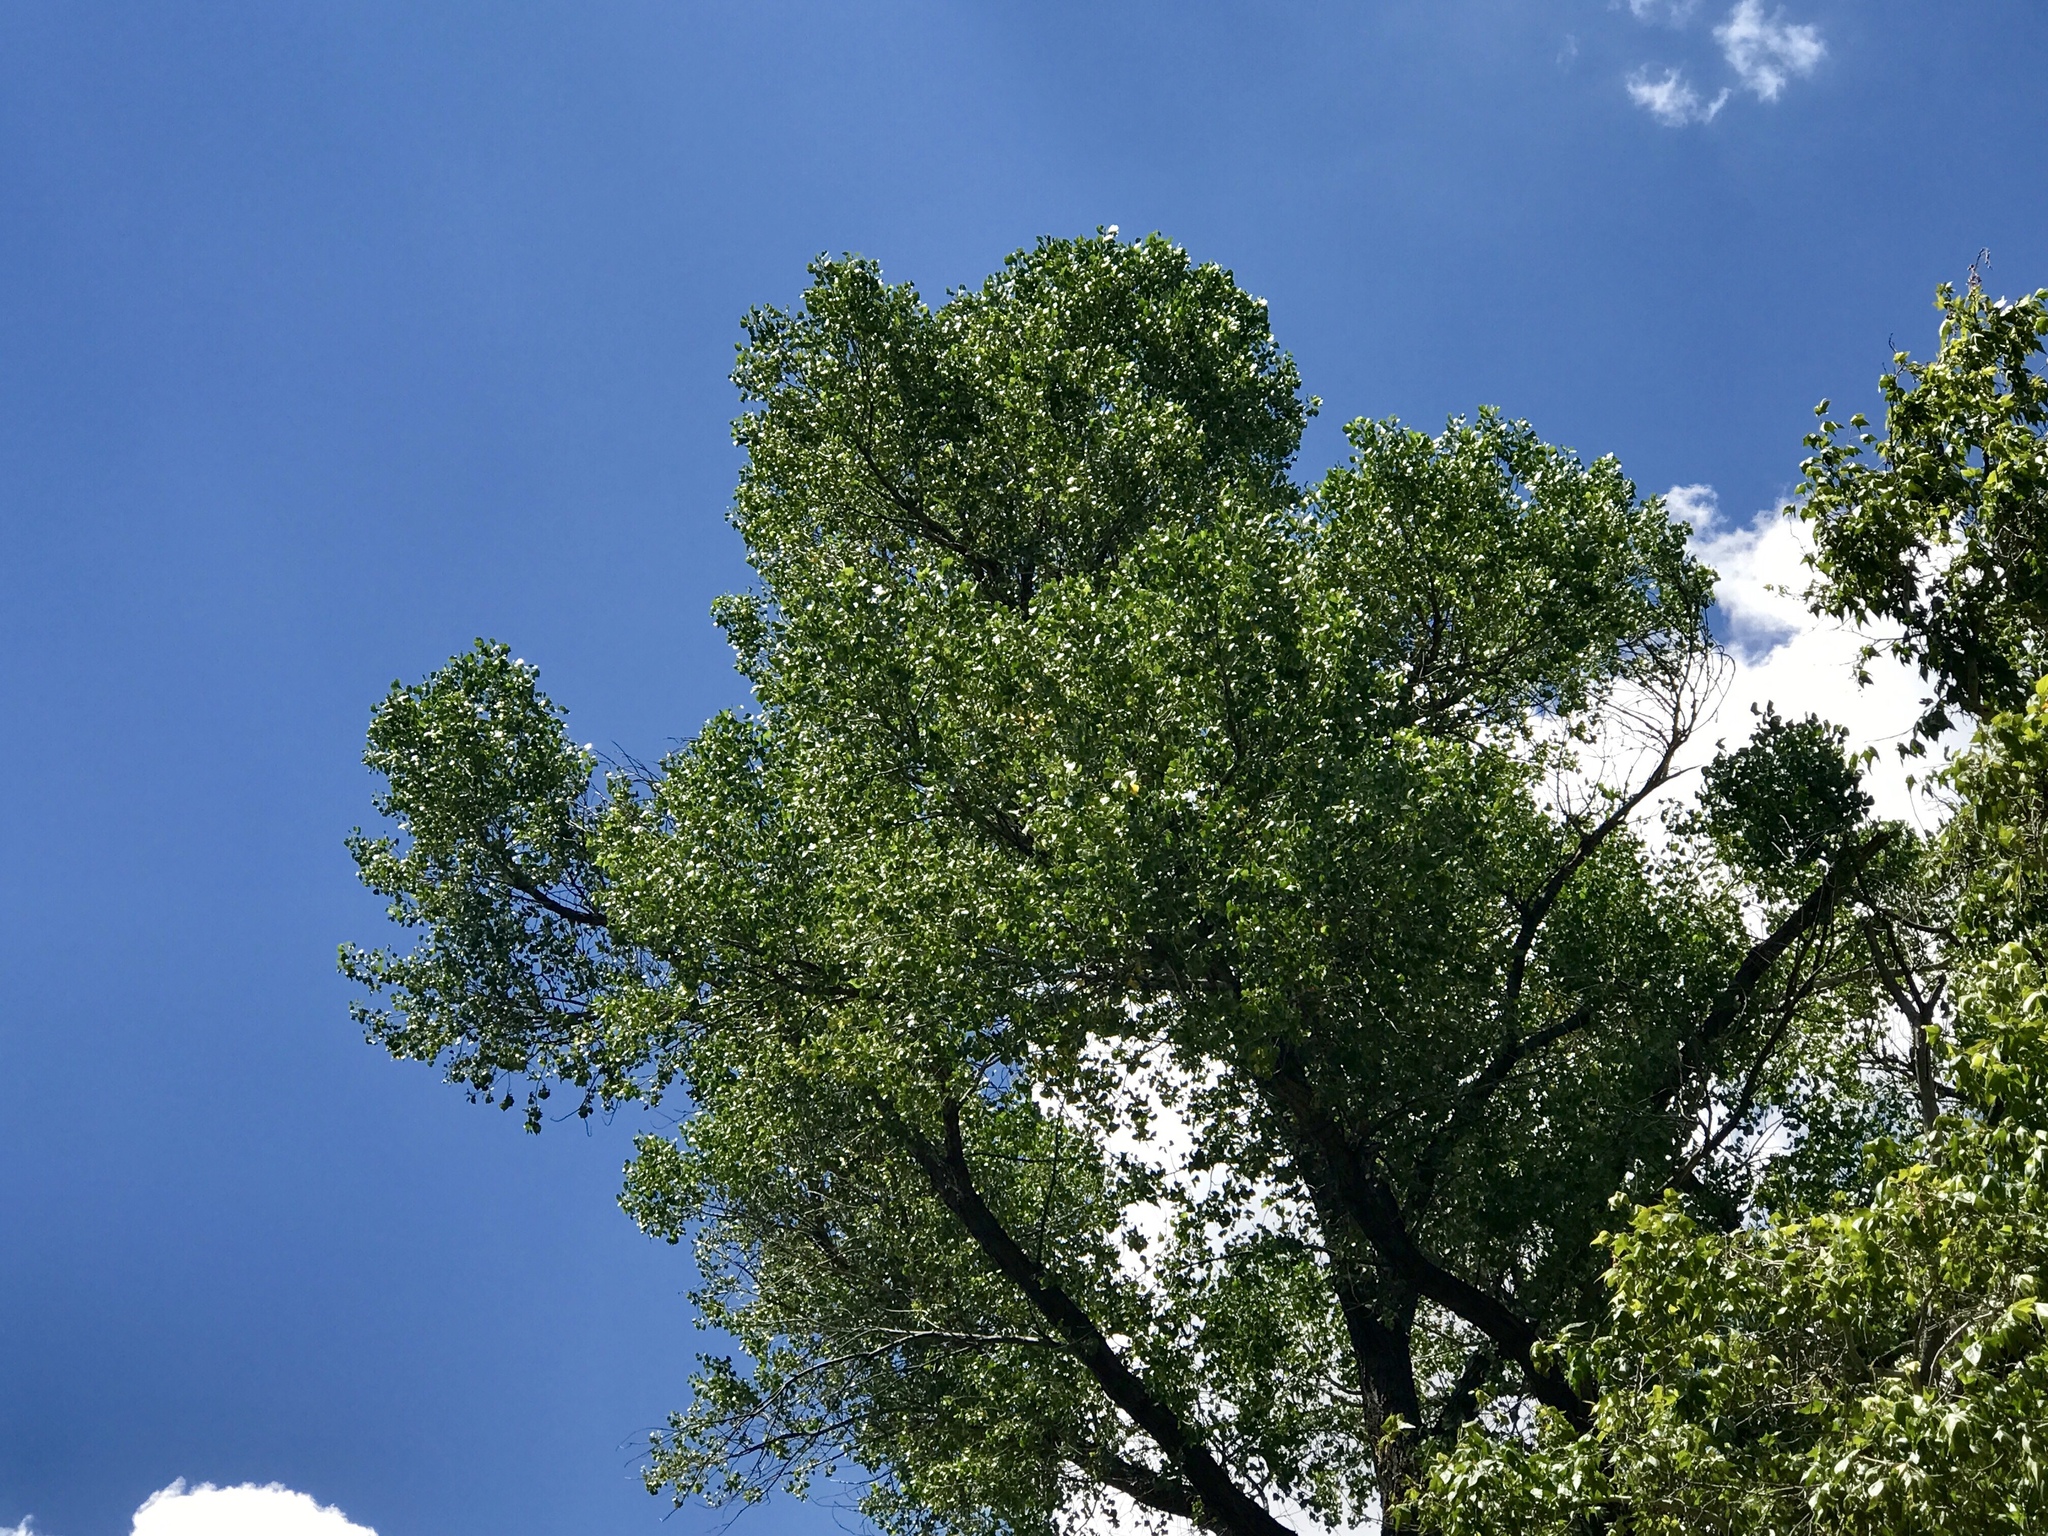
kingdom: Plantae
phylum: Tracheophyta
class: Magnoliopsida
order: Proteales
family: Platanaceae
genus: Platanus
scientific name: Platanus wrightii
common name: Arizona sycamore
